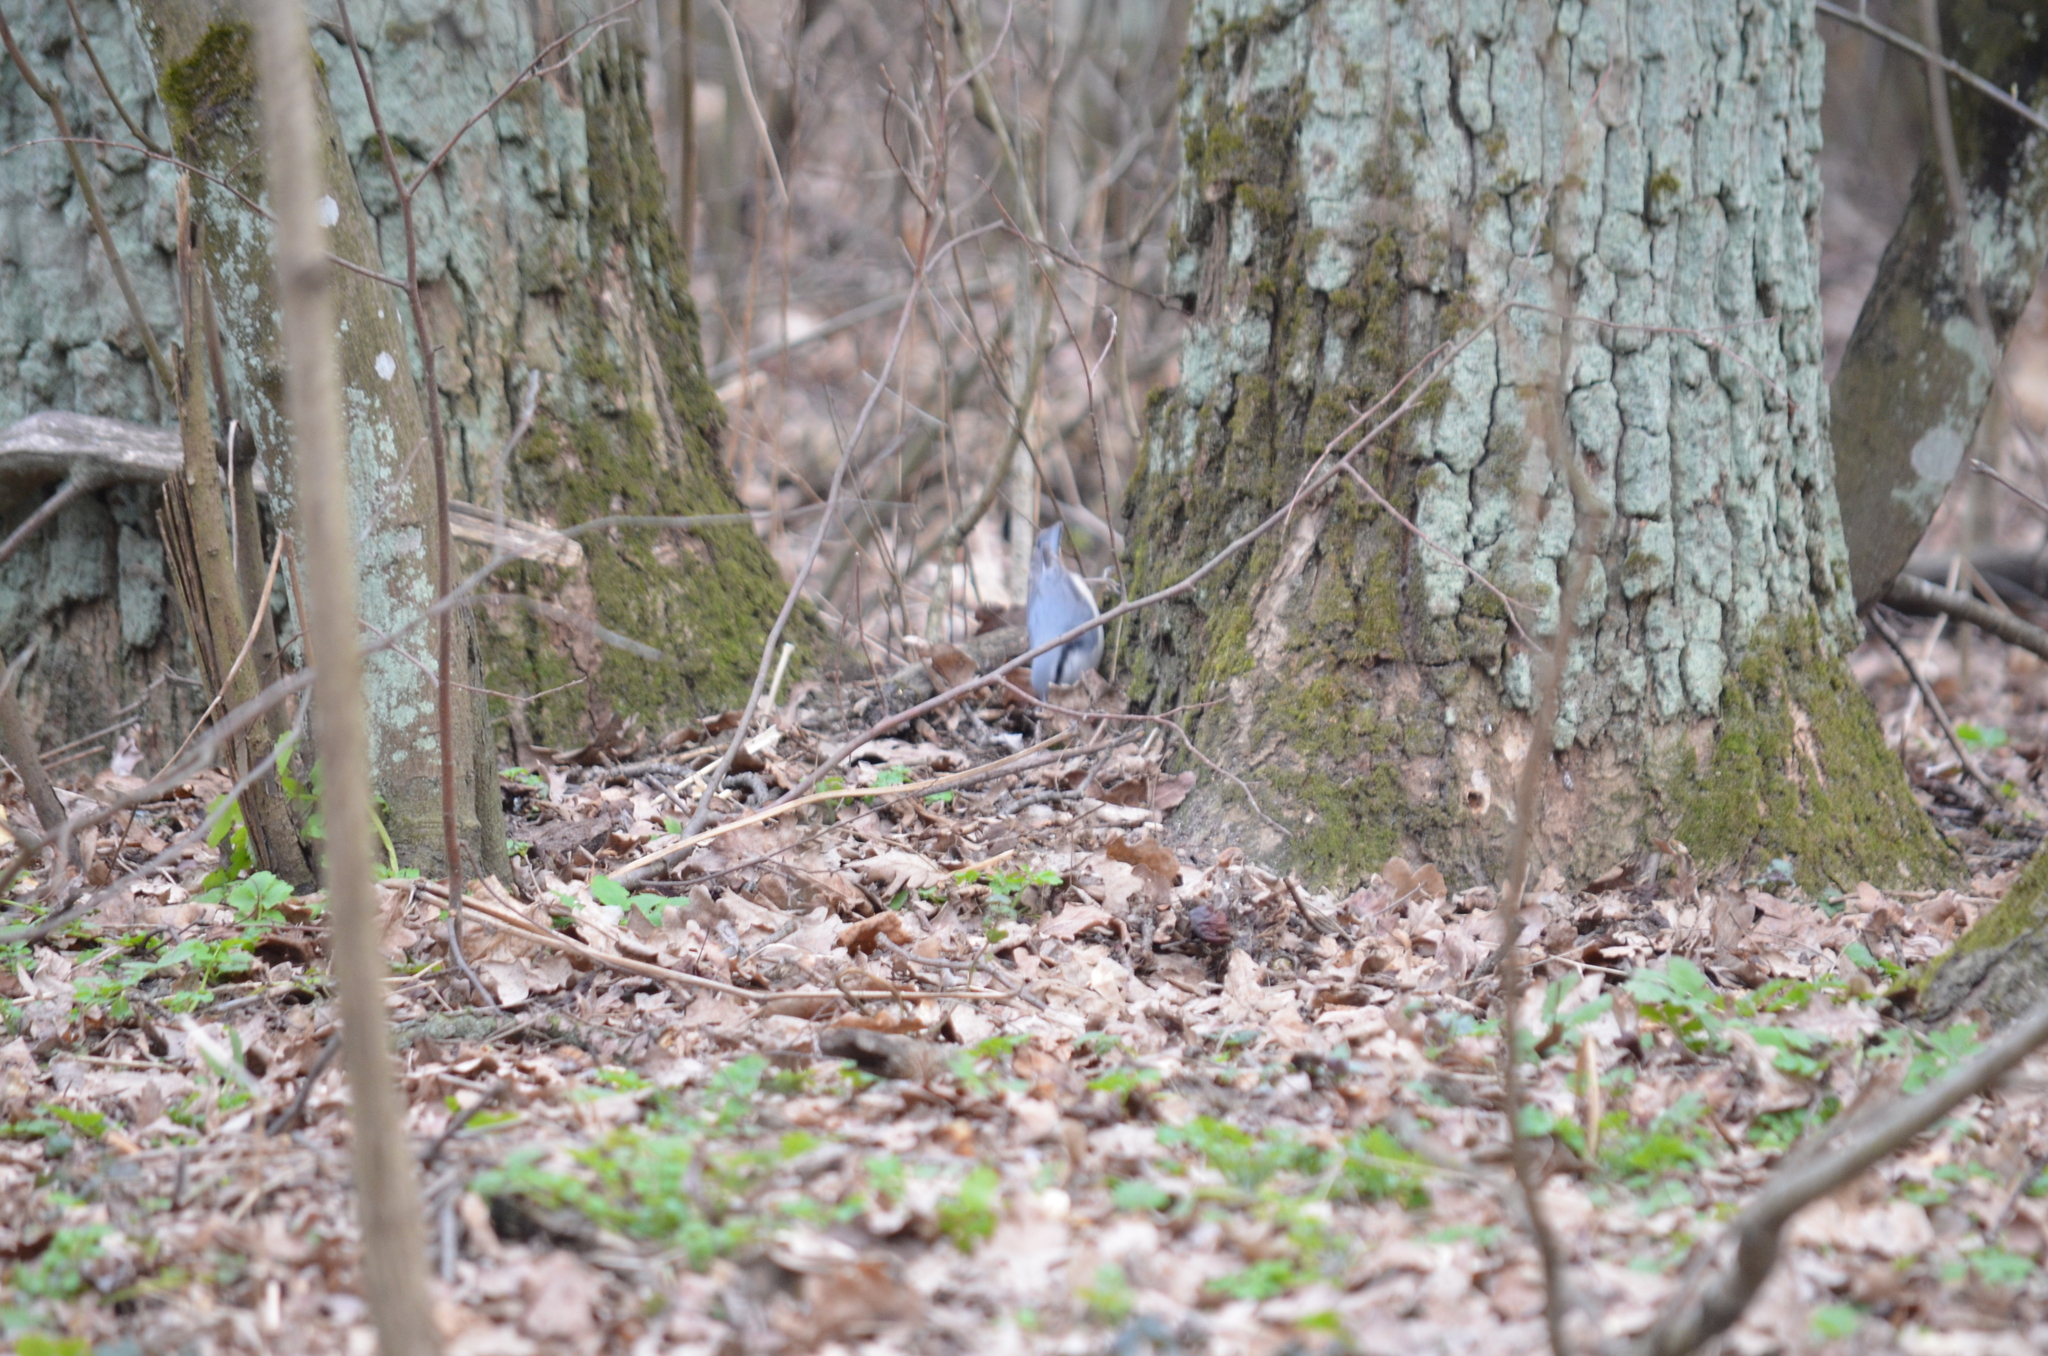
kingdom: Animalia
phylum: Chordata
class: Aves
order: Passeriformes
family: Sittidae
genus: Sitta
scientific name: Sitta europaea
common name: Eurasian nuthatch
